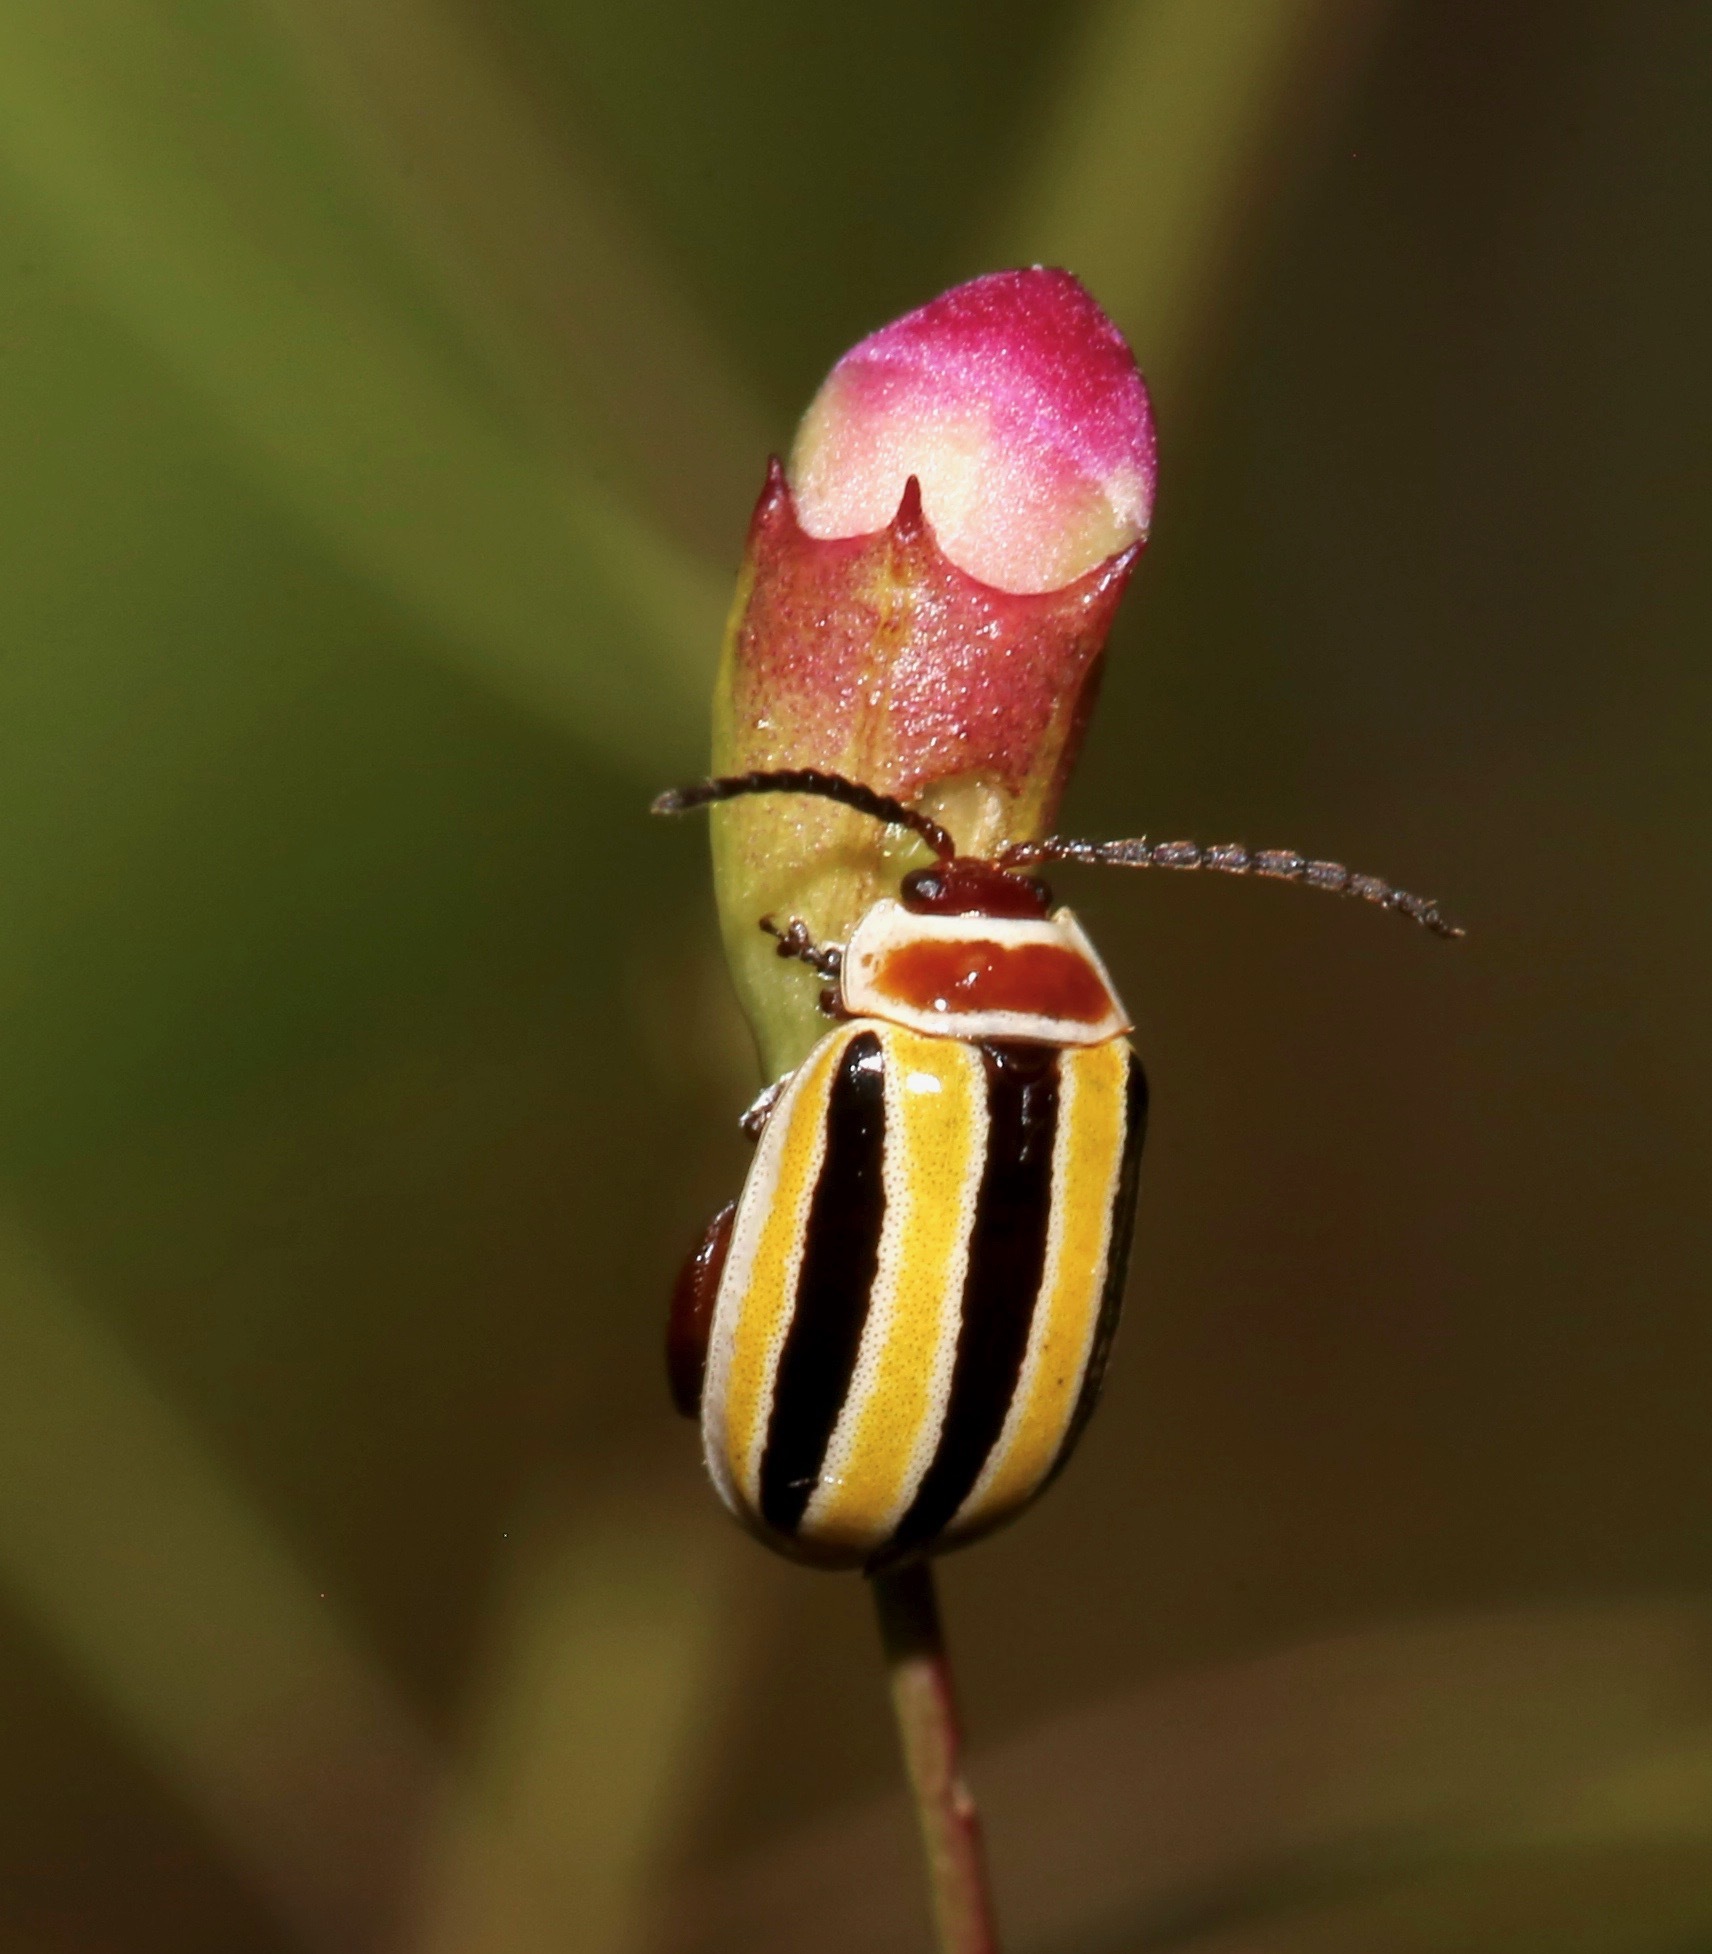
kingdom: Animalia
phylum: Arthropoda
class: Insecta
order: Coleoptera
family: Chrysomelidae
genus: Kuschelina
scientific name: Kuschelina floridana
